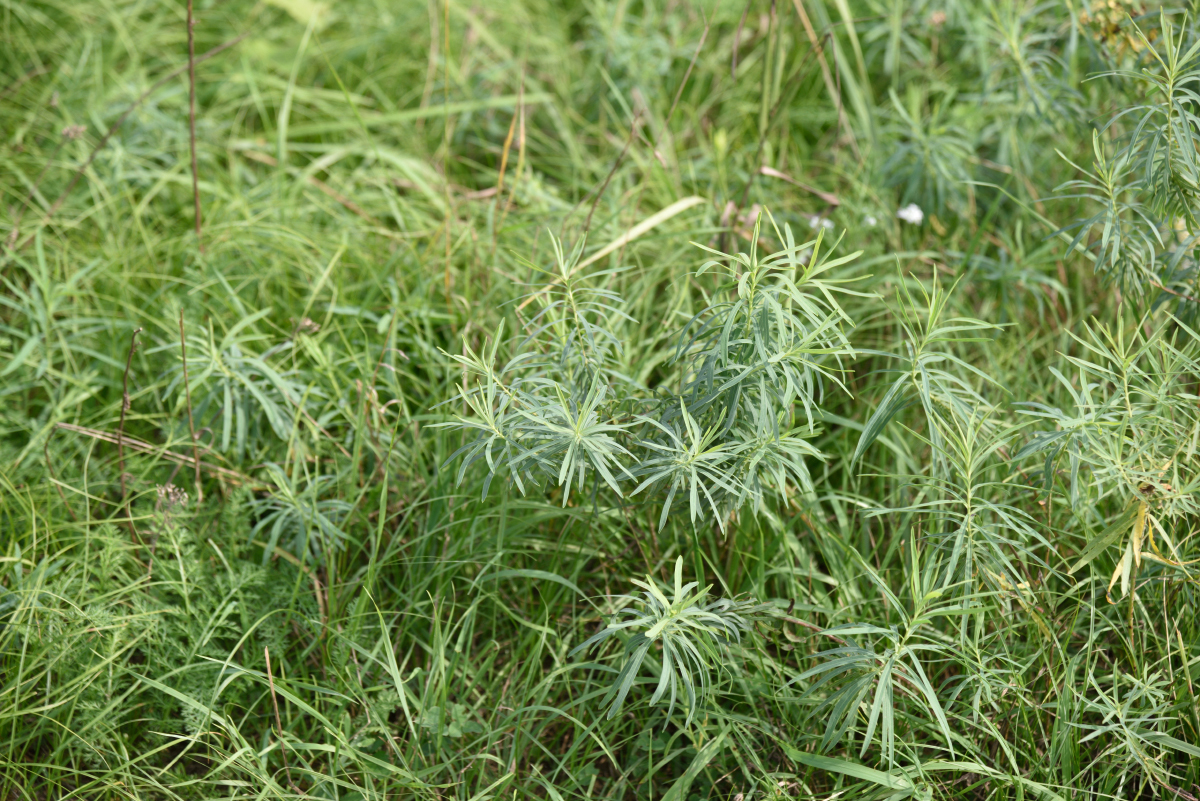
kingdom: Plantae
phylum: Tracheophyta
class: Magnoliopsida
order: Malpighiales
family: Euphorbiaceae
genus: Euphorbia
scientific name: Euphorbia virgata
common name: Leafy spurge
